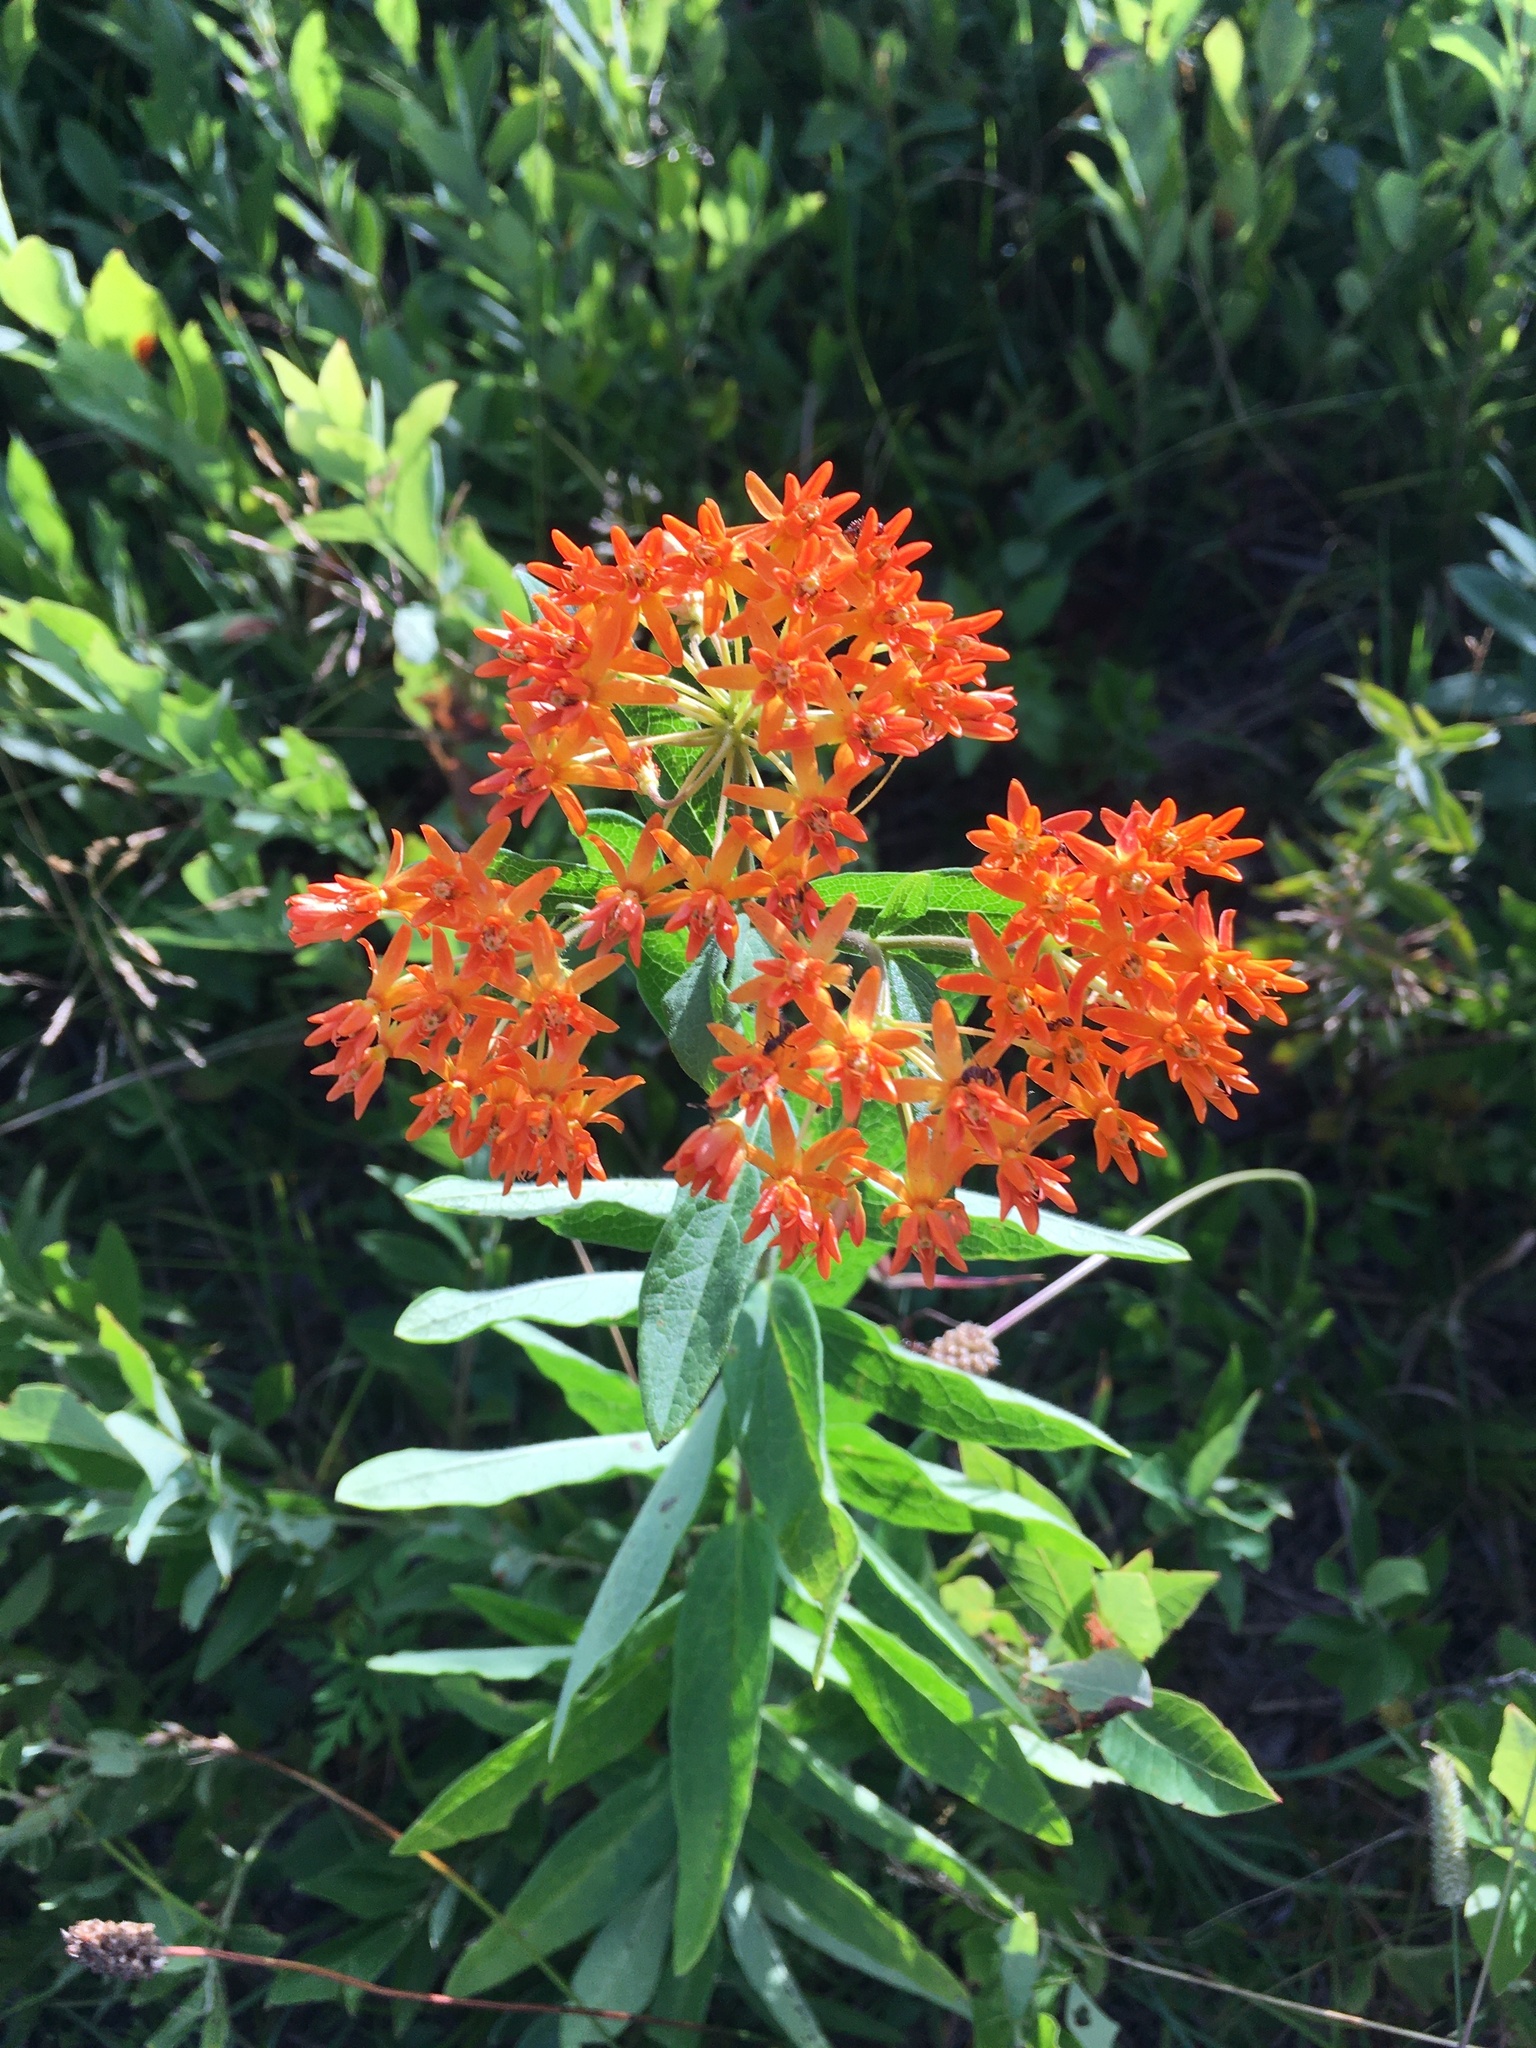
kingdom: Plantae
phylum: Tracheophyta
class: Magnoliopsida
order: Gentianales
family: Apocynaceae
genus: Asclepias
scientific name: Asclepias tuberosa
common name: Butterfly milkweed
